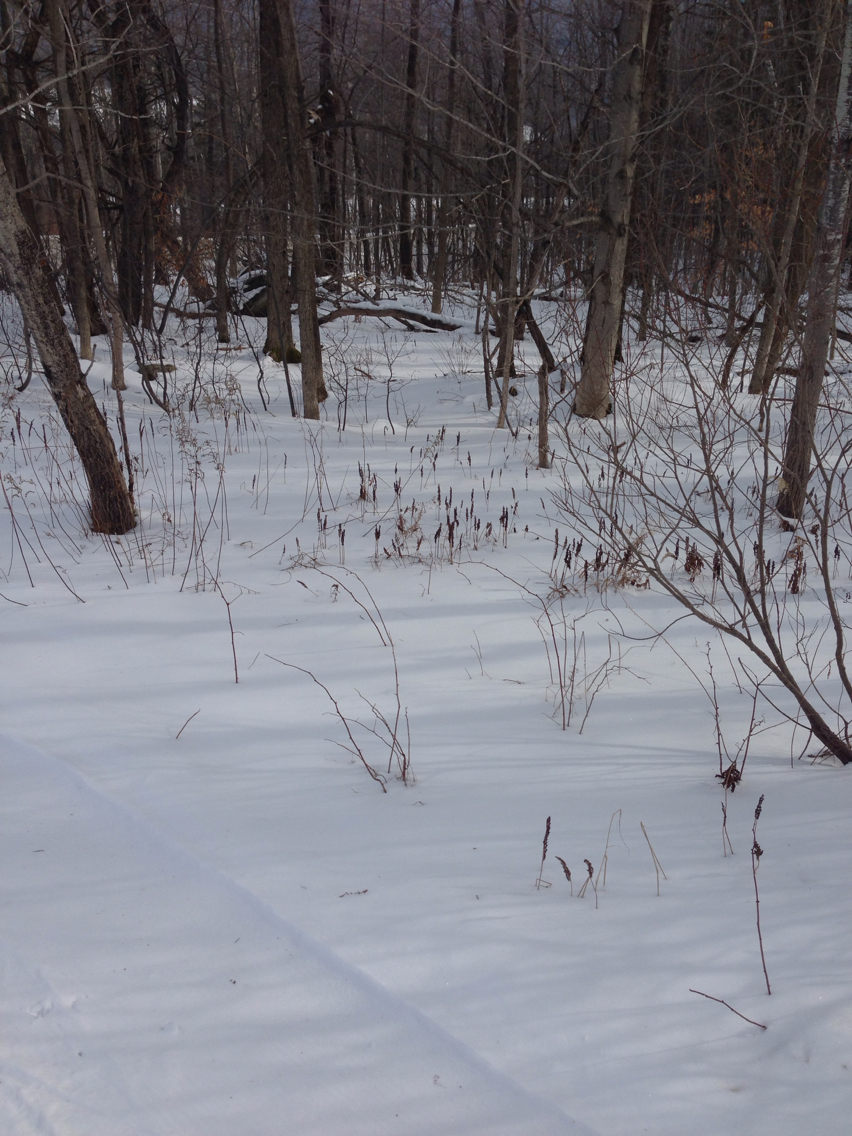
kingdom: Plantae
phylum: Tracheophyta
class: Polypodiopsida
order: Polypodiales
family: Onocleaceae
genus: Onoclea
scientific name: Onoclea sensibilis
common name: Sensitive fern
